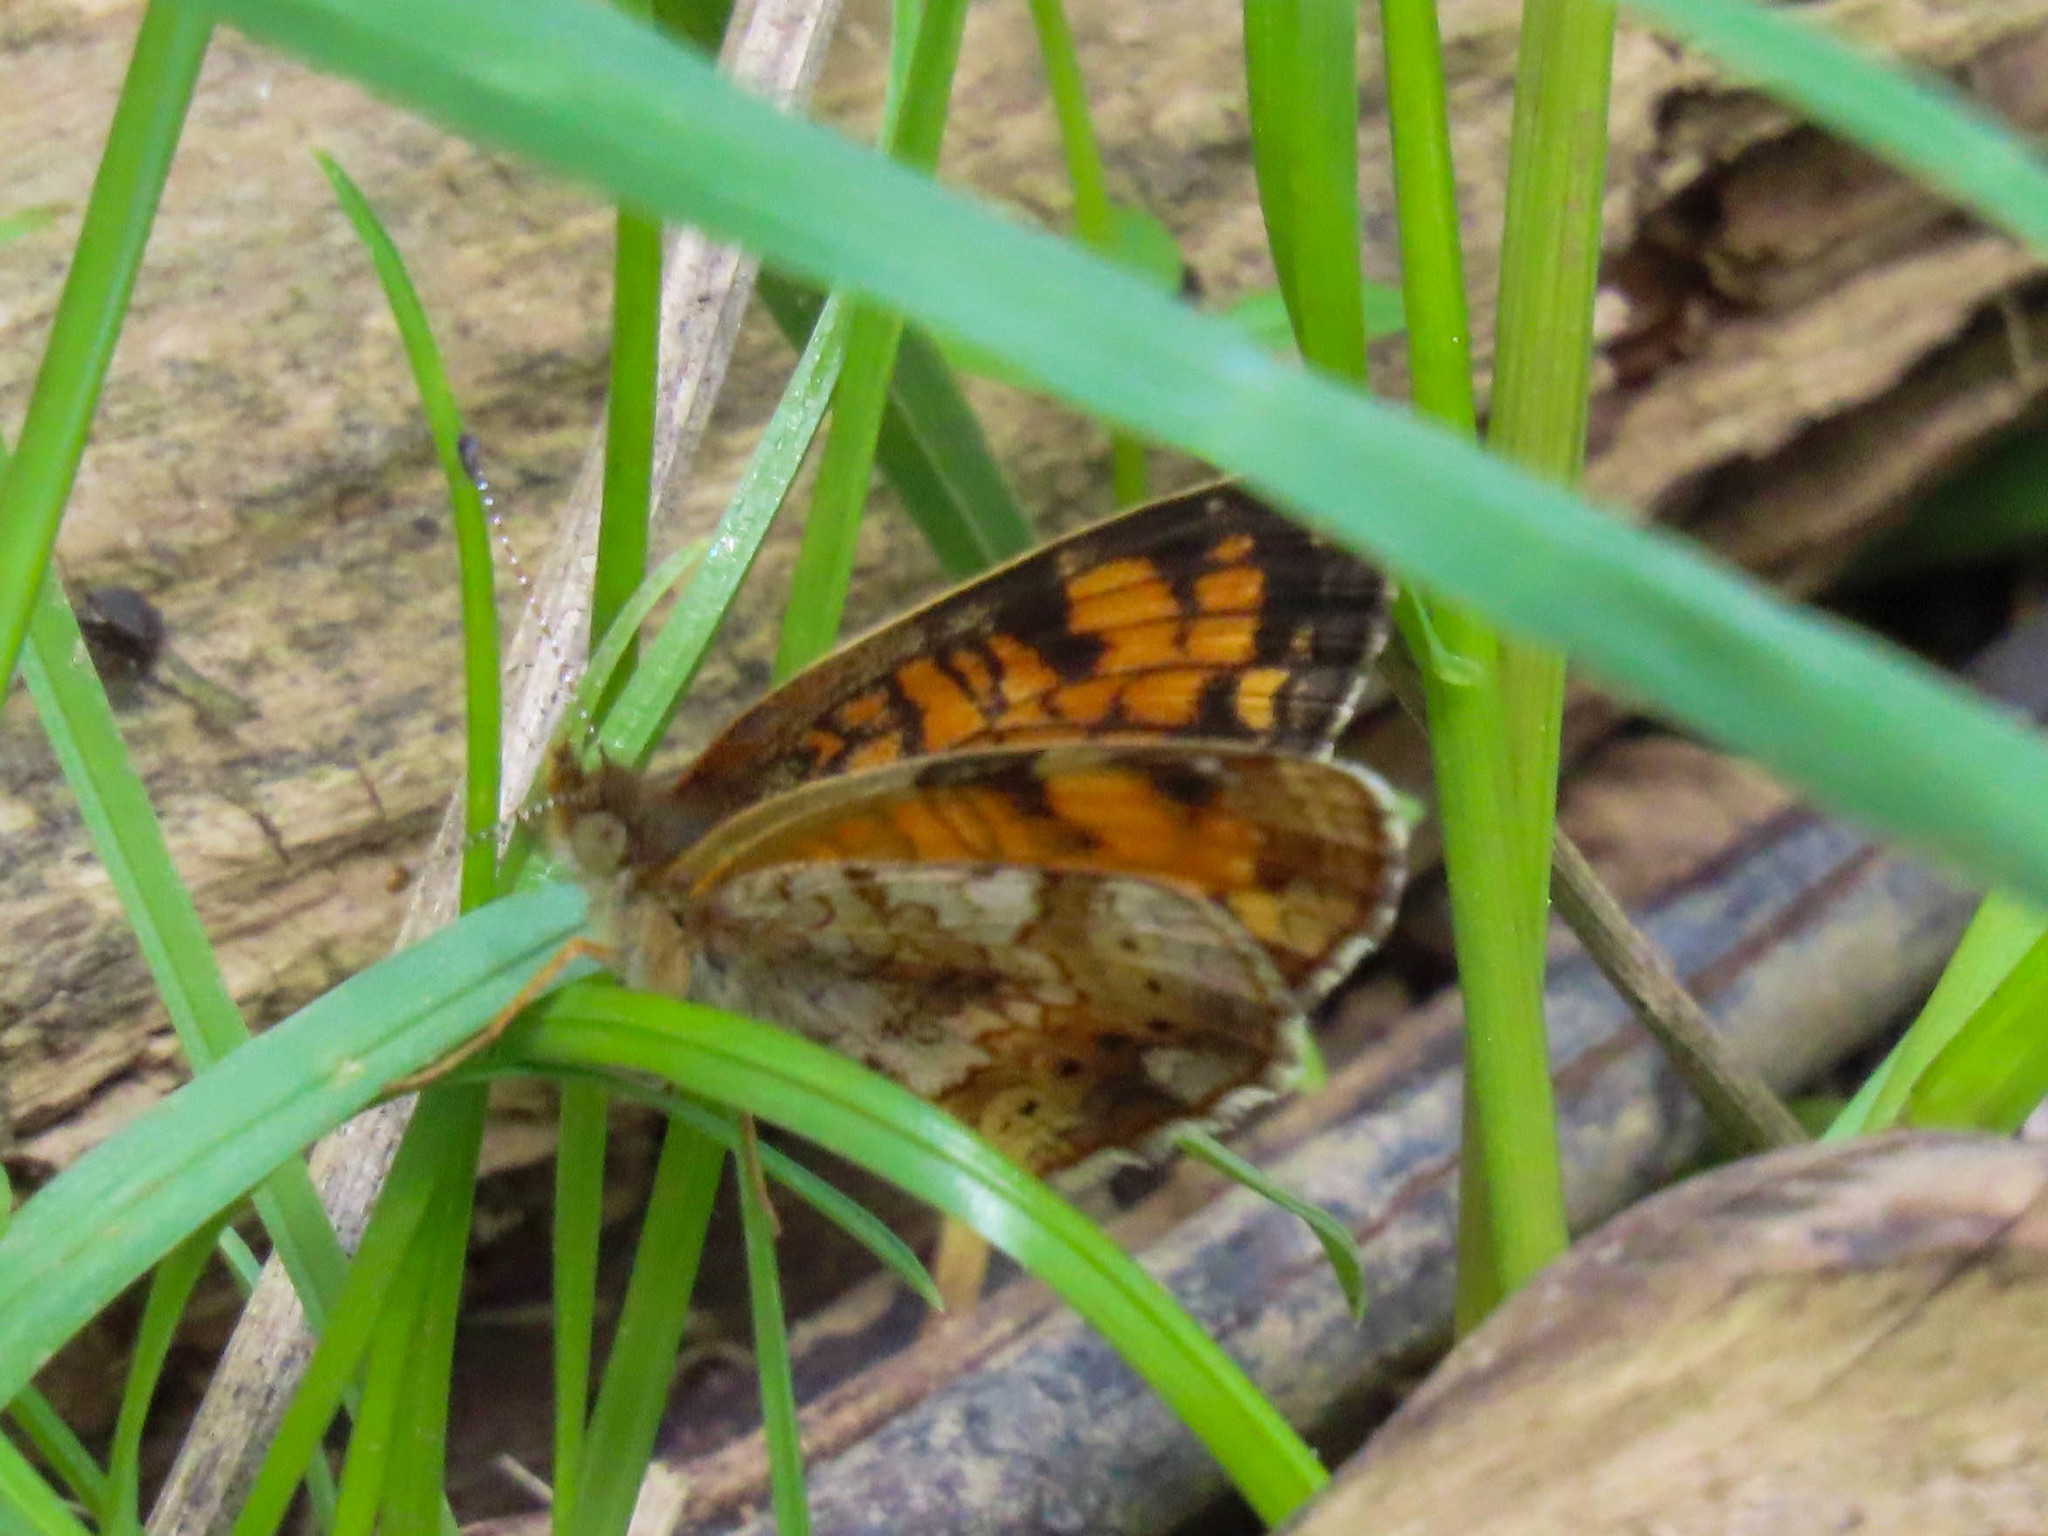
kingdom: Animalia
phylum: Arthropoda
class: Insecta
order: Lepidoptera
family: Nymphalidae
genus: Phyciodes
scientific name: Phyciodes tharos
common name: Pearl crescent
